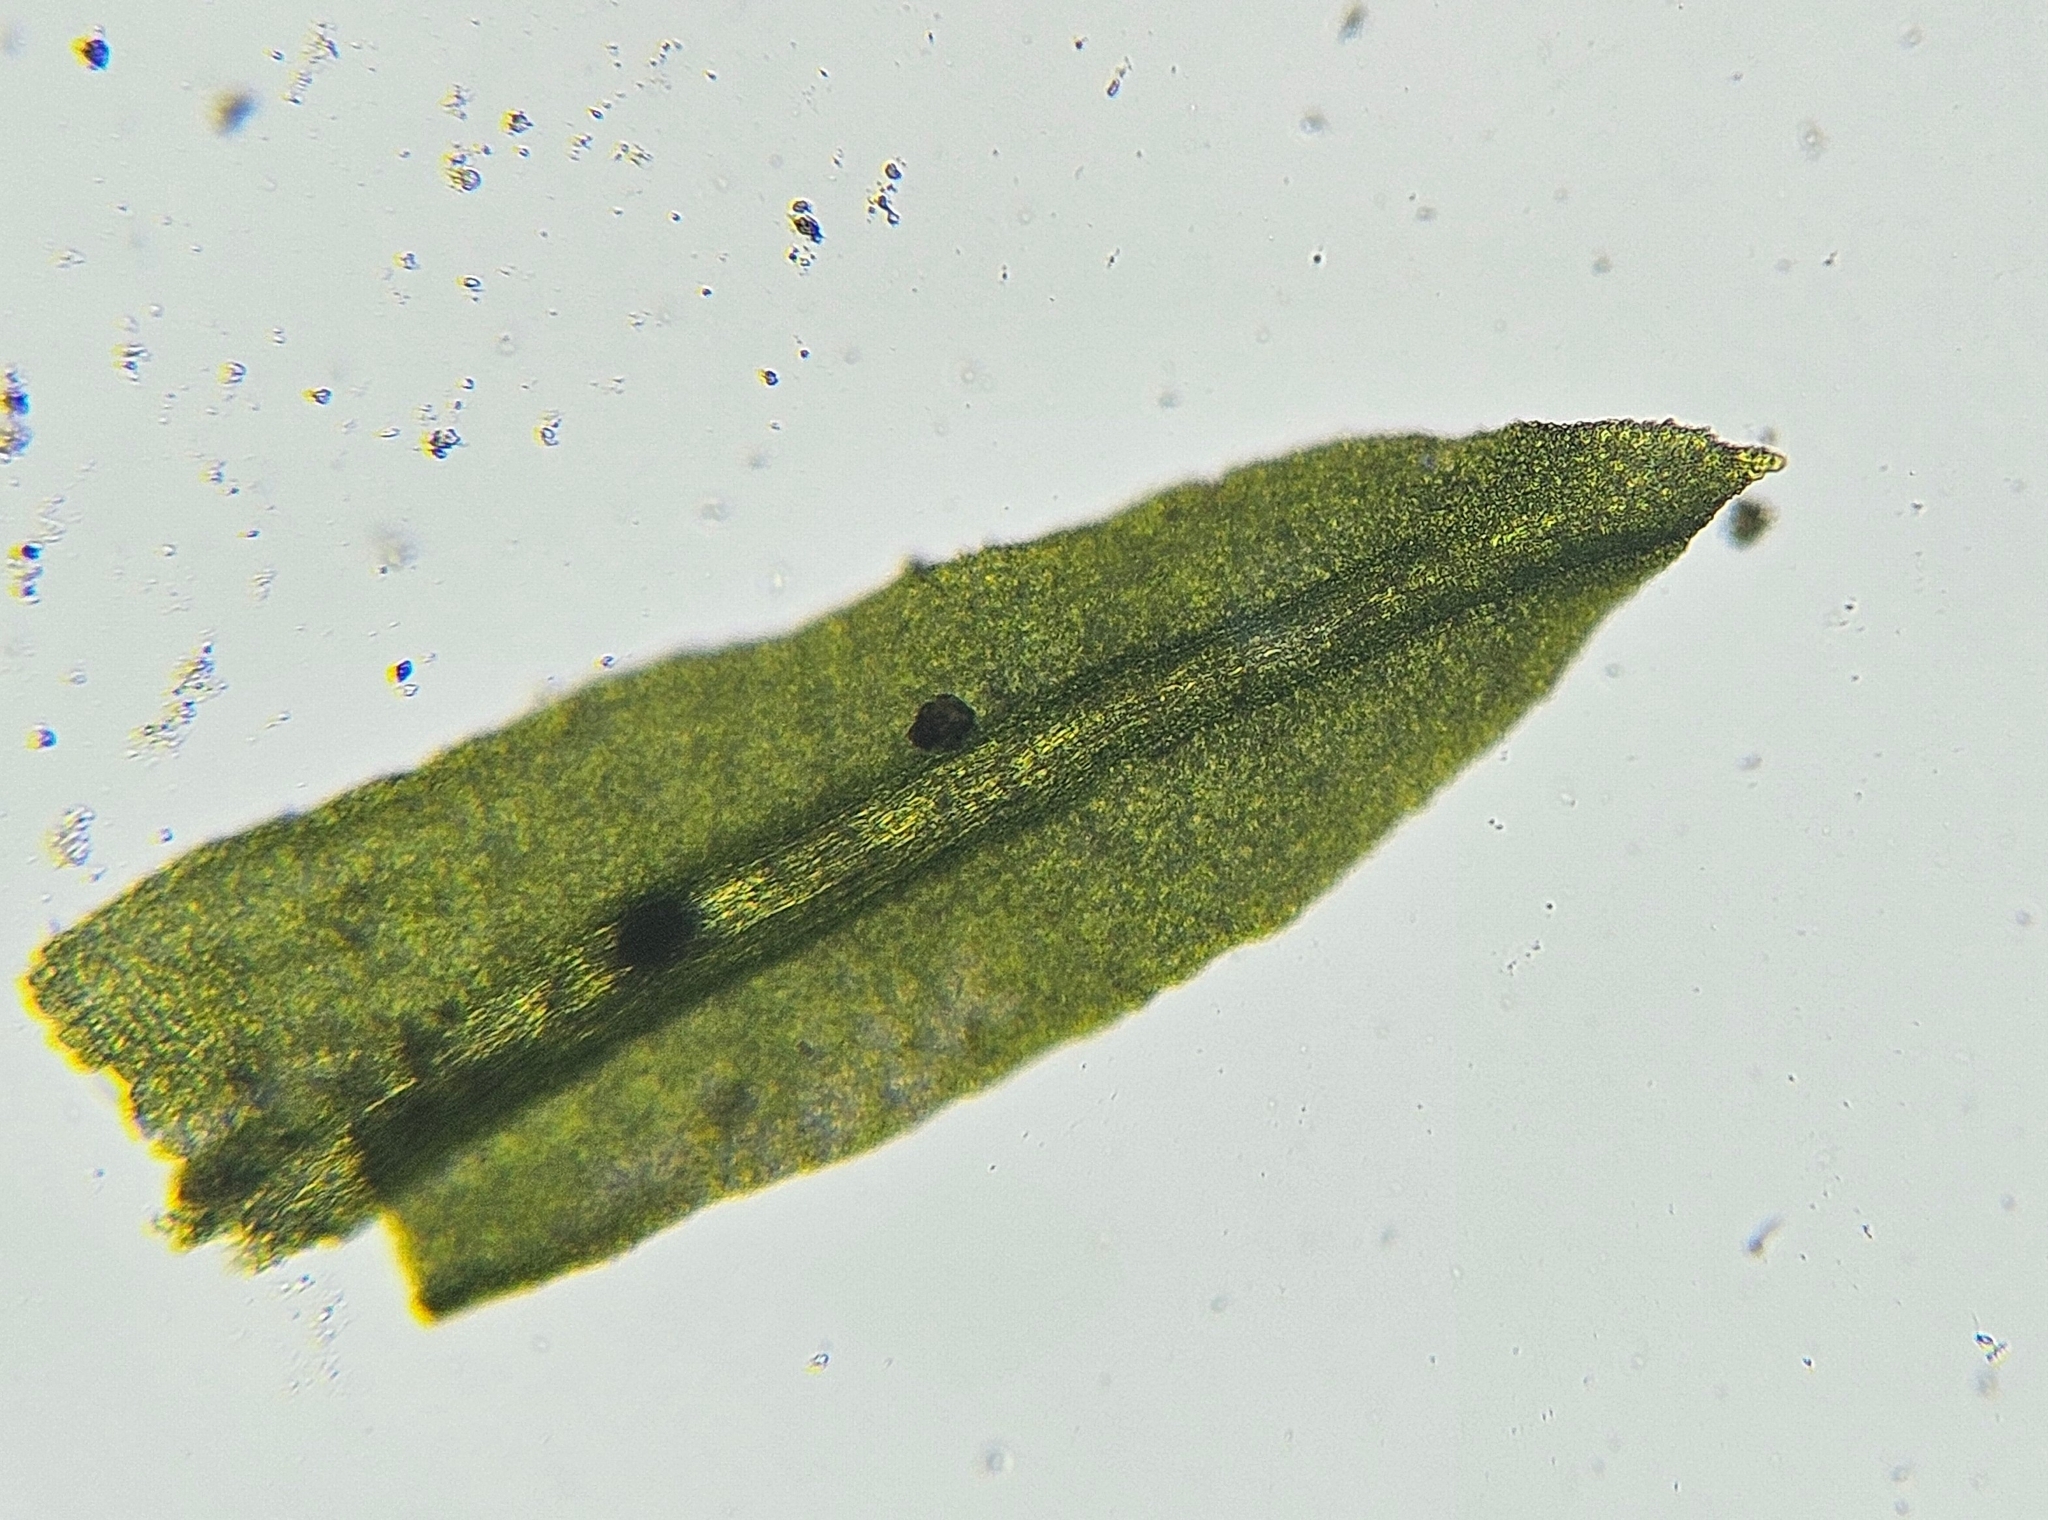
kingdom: Plantae
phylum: Bryophyta
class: Bryopsida
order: Pottiales
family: Pottiaceae
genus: Streblotrichum
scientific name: Streblotrichum convolutum
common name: Lesser bird's-claw beard-moss
